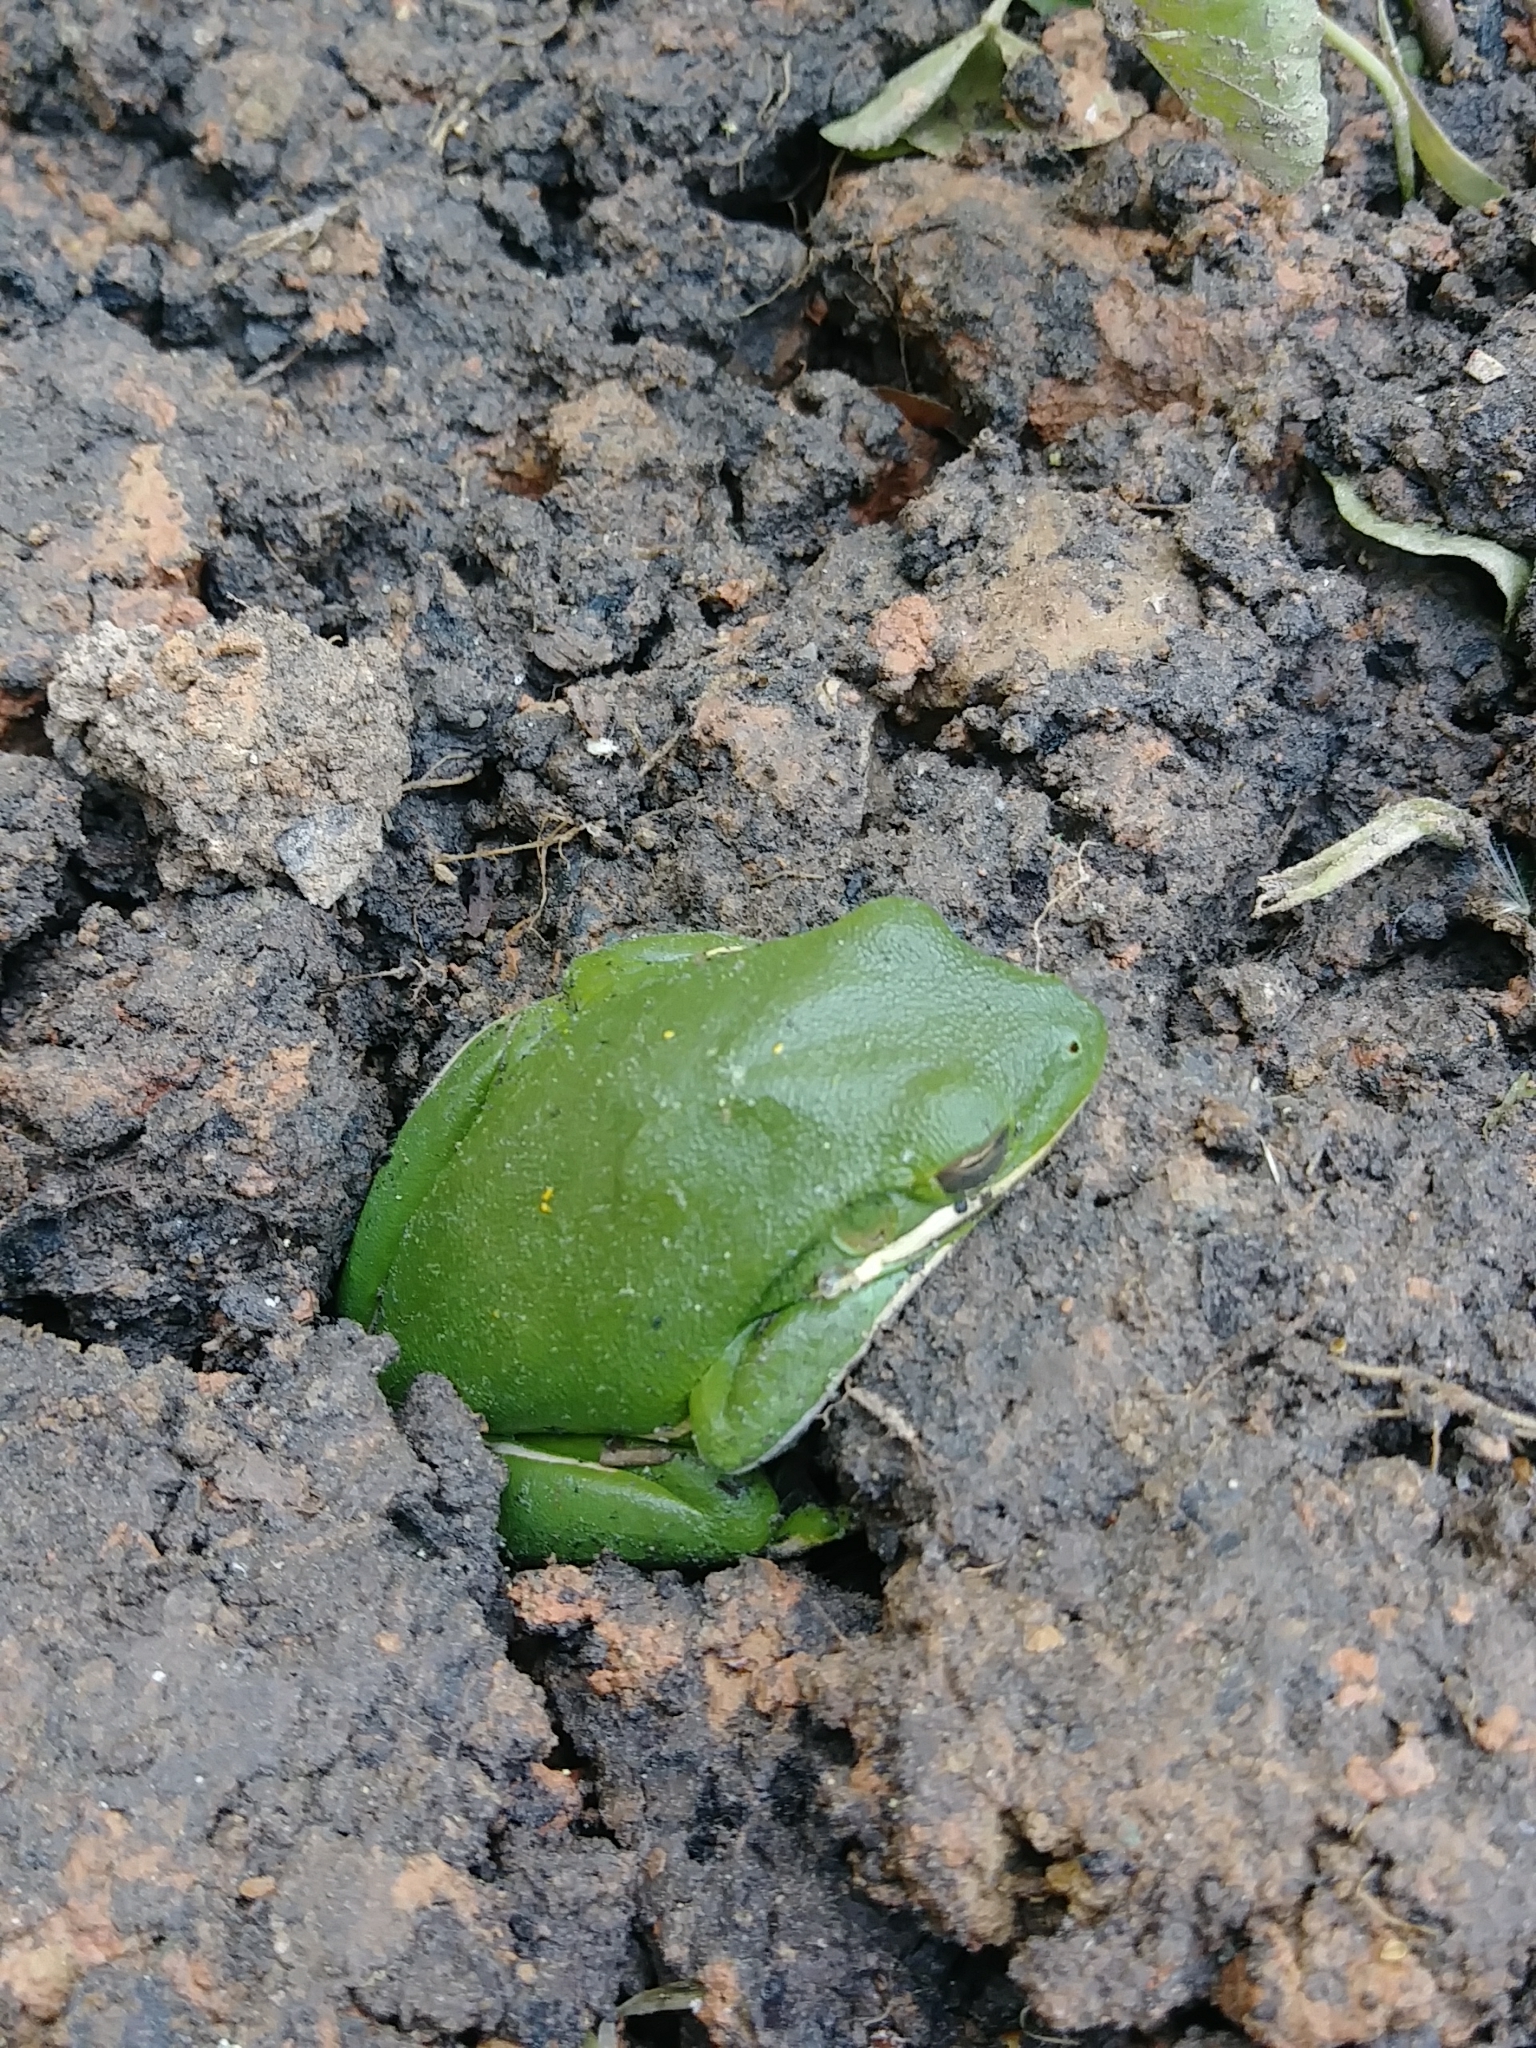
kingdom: Animalia
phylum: Chordata
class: Amphibia
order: Anura
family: Hylidae
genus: Dryophytes
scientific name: Dryophytes cinereus
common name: Green treefrog
